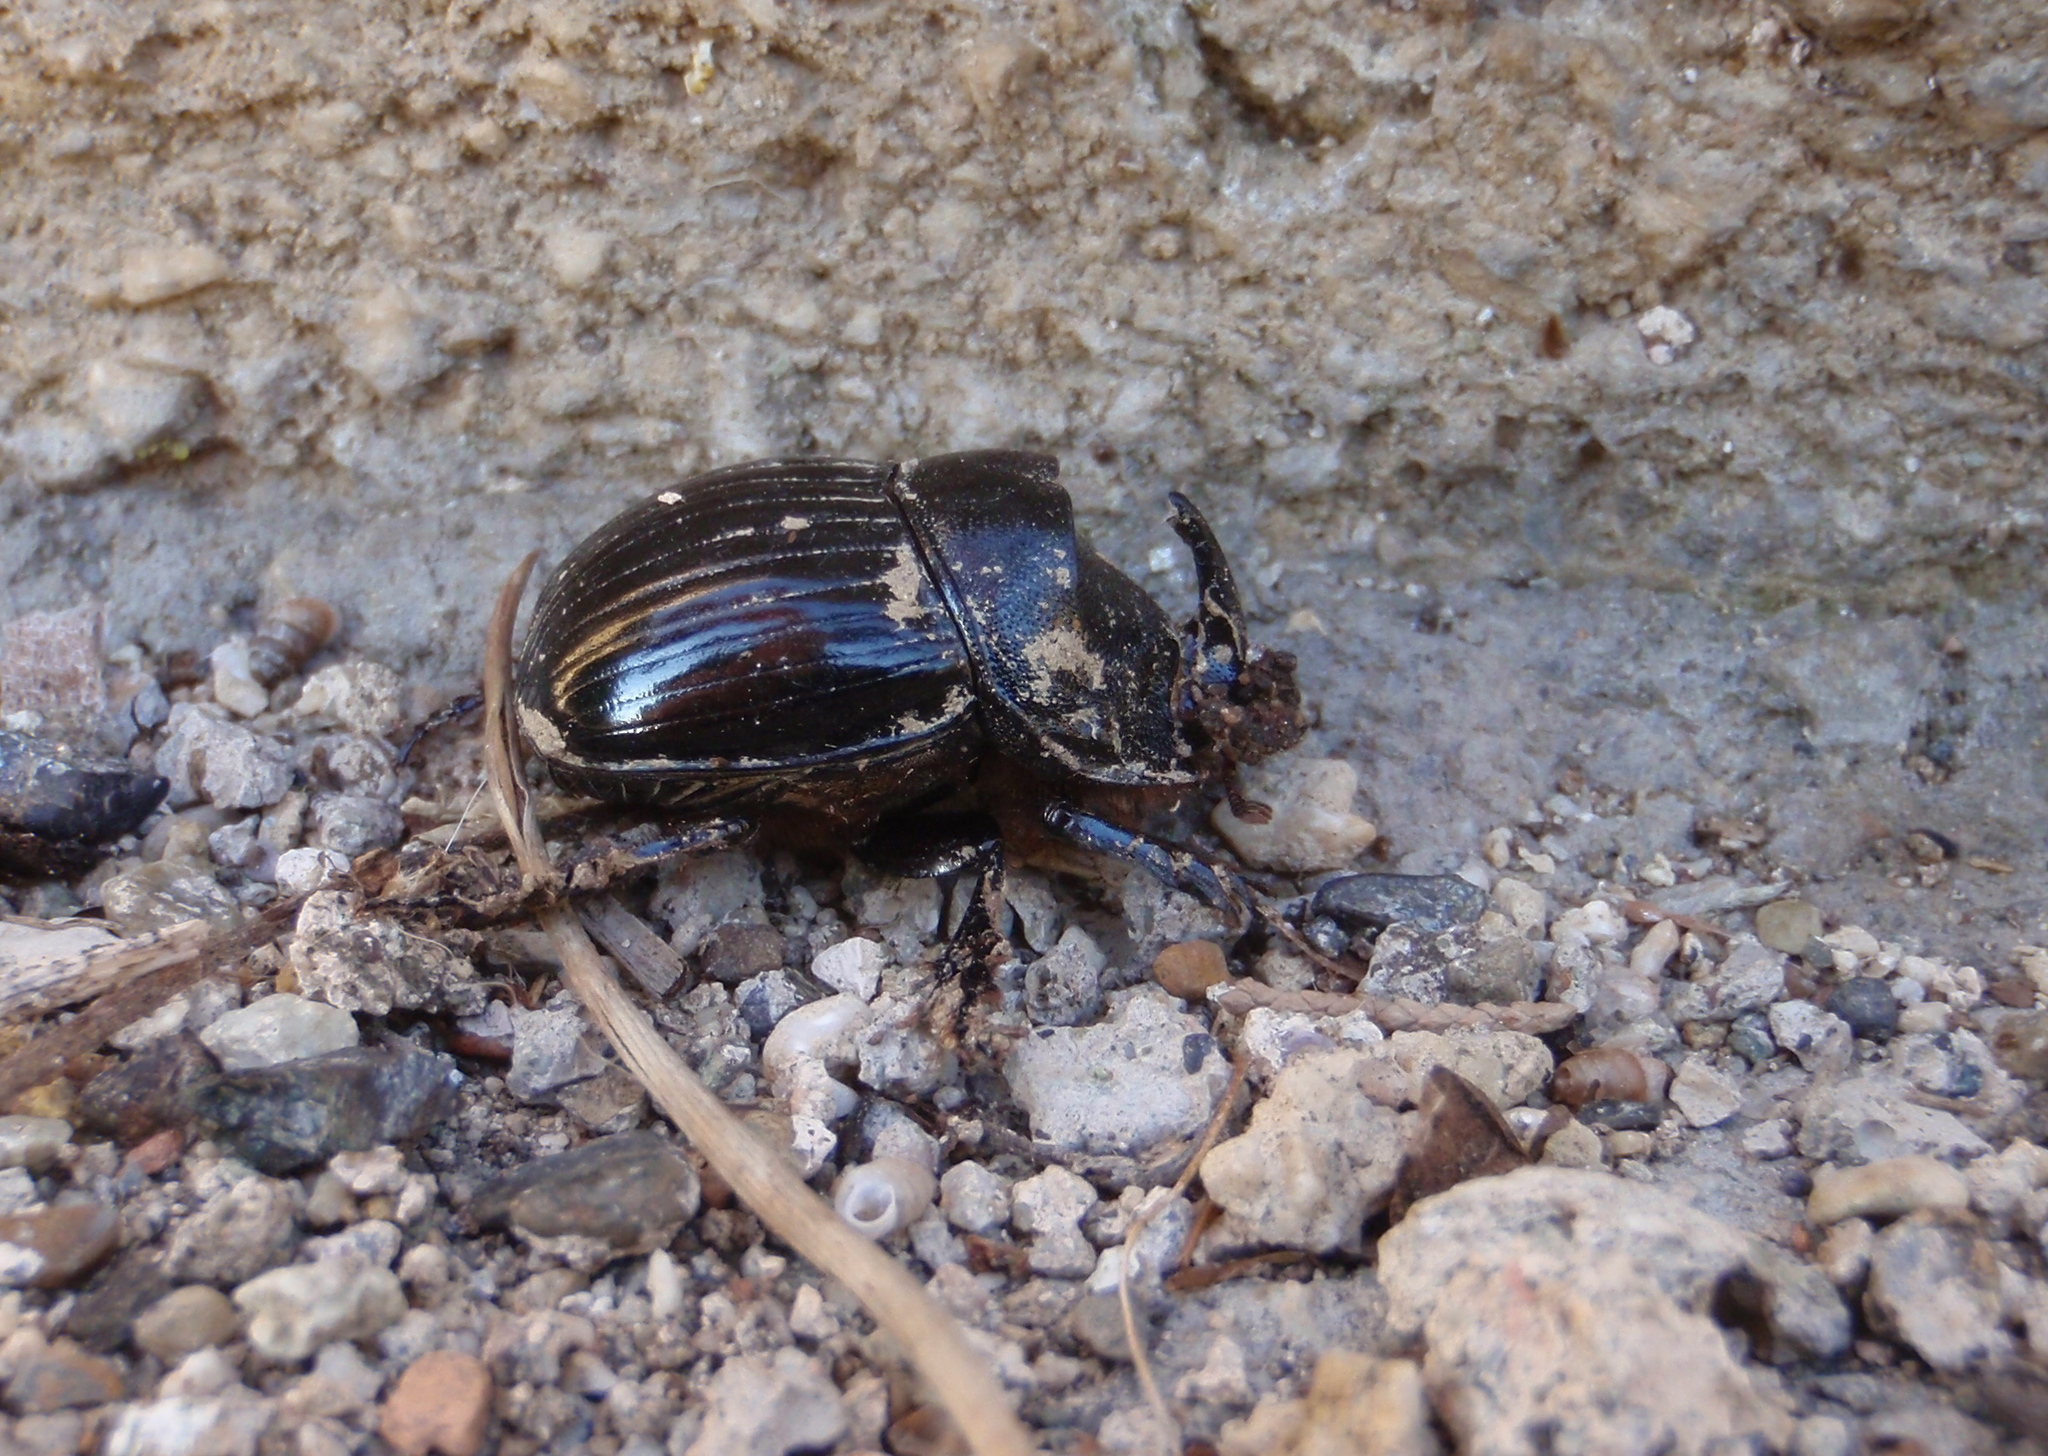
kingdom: Animalia
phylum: Arthropoda
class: Insecta
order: Coleoptera
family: Scarabaeidae
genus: Copris
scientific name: Copris hispanus
